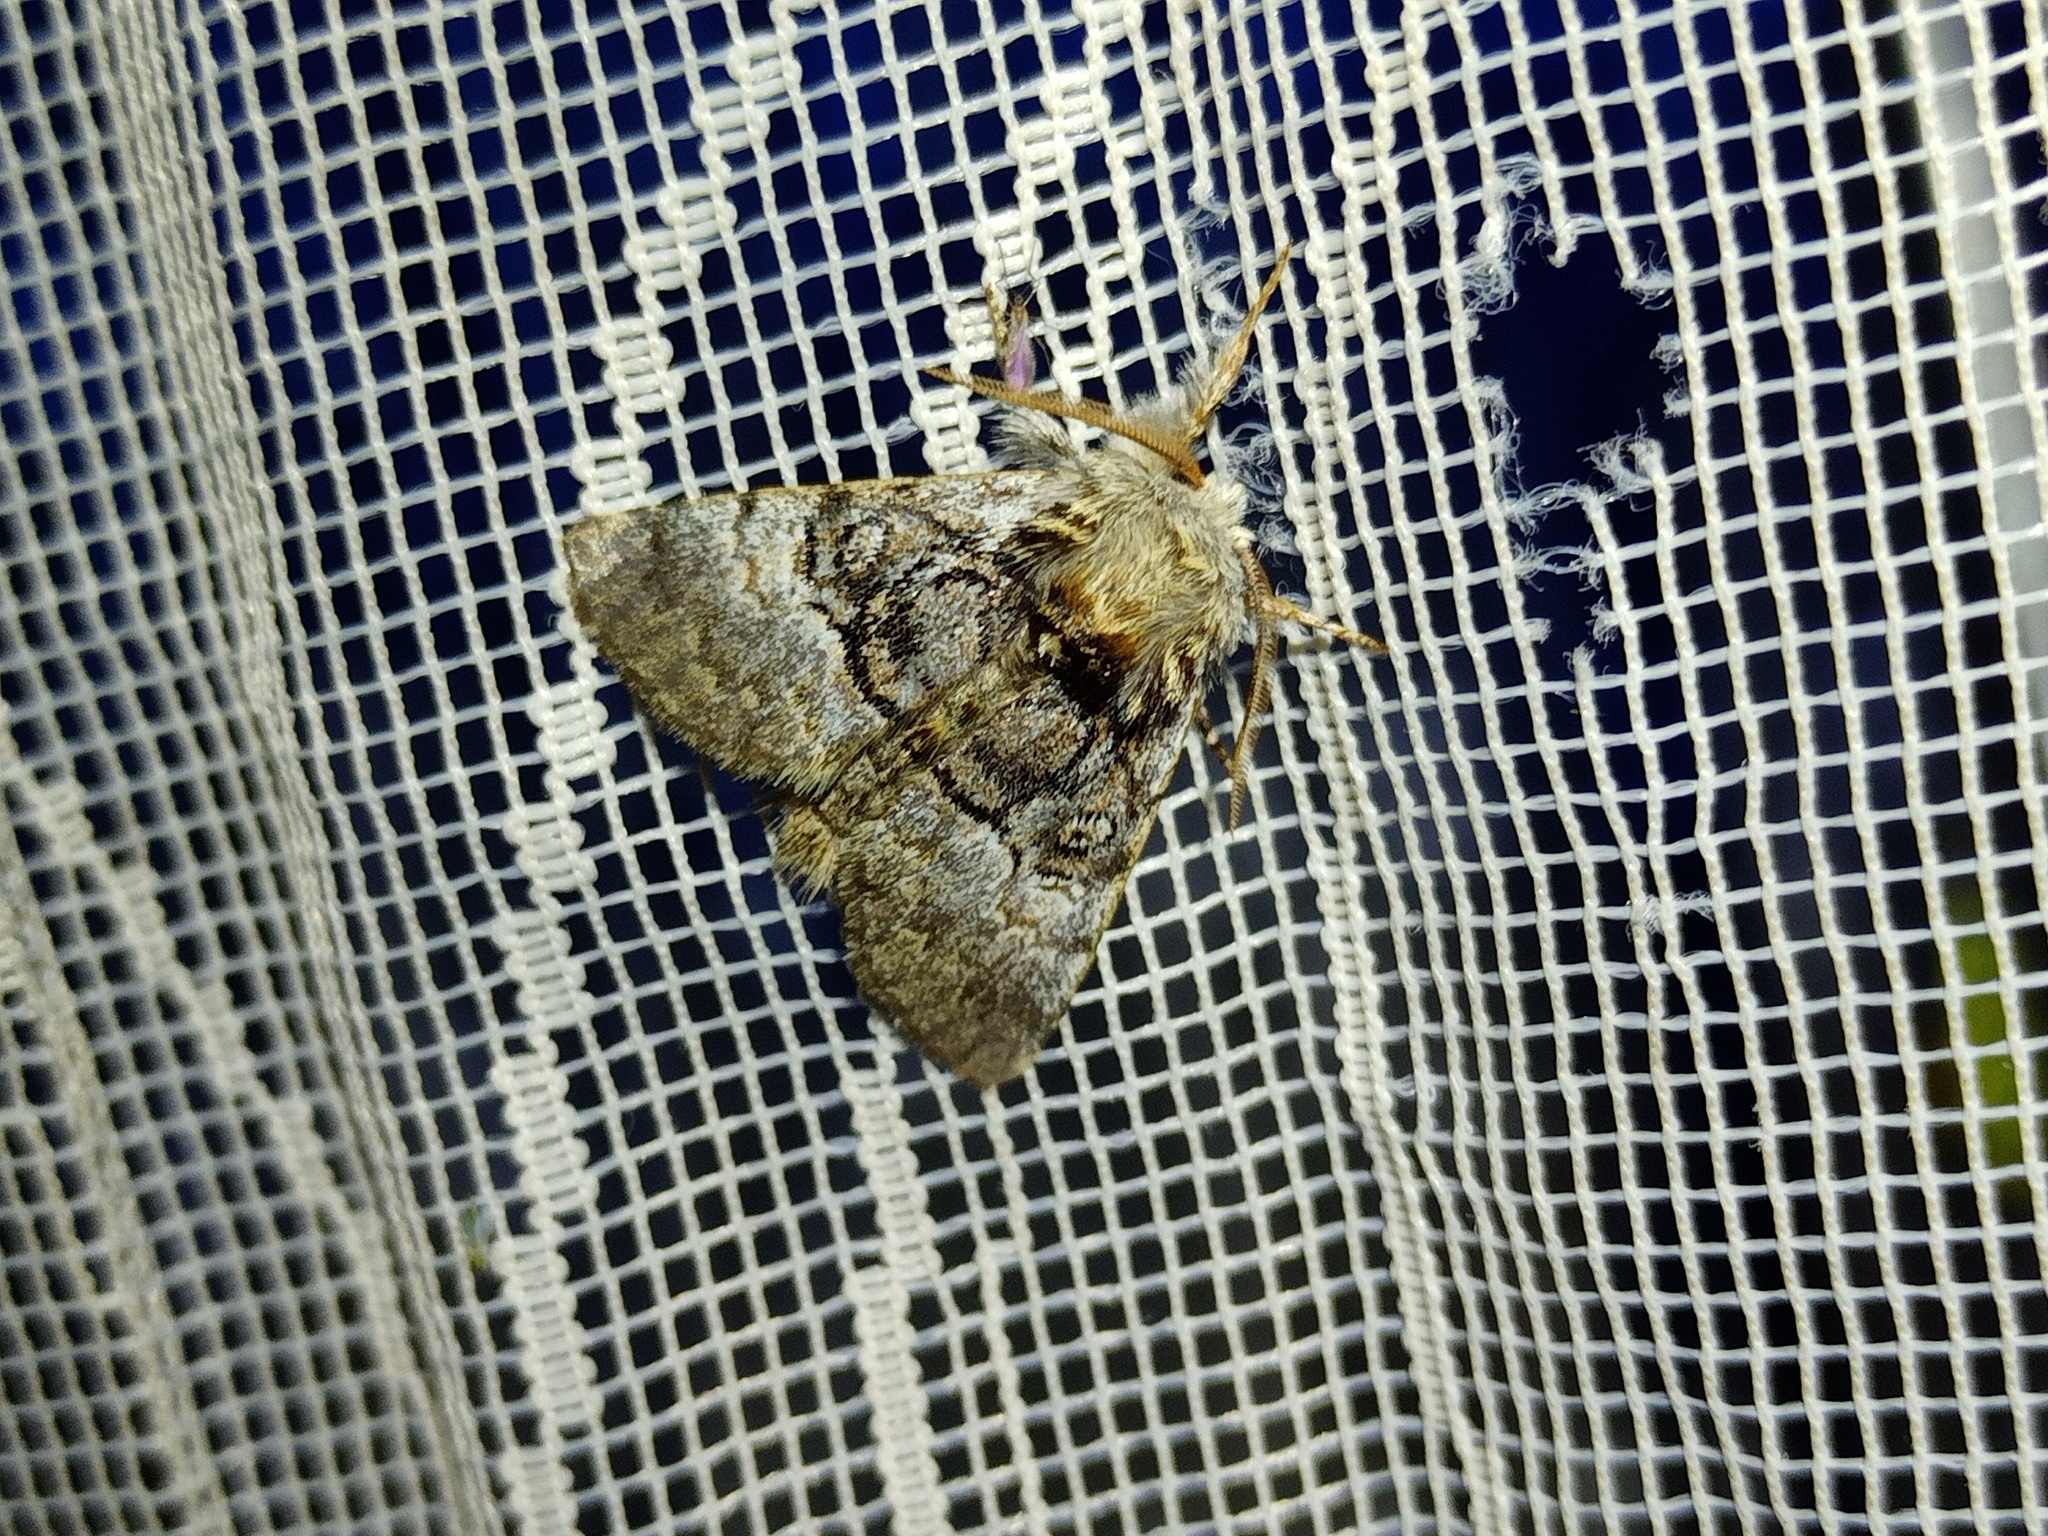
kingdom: Animalia
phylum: Arthropoda
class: Insecta
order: Lepidoptera
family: Noctuidae
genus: Colocasia
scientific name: Colocasia coryli
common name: Nut-tree tussock
